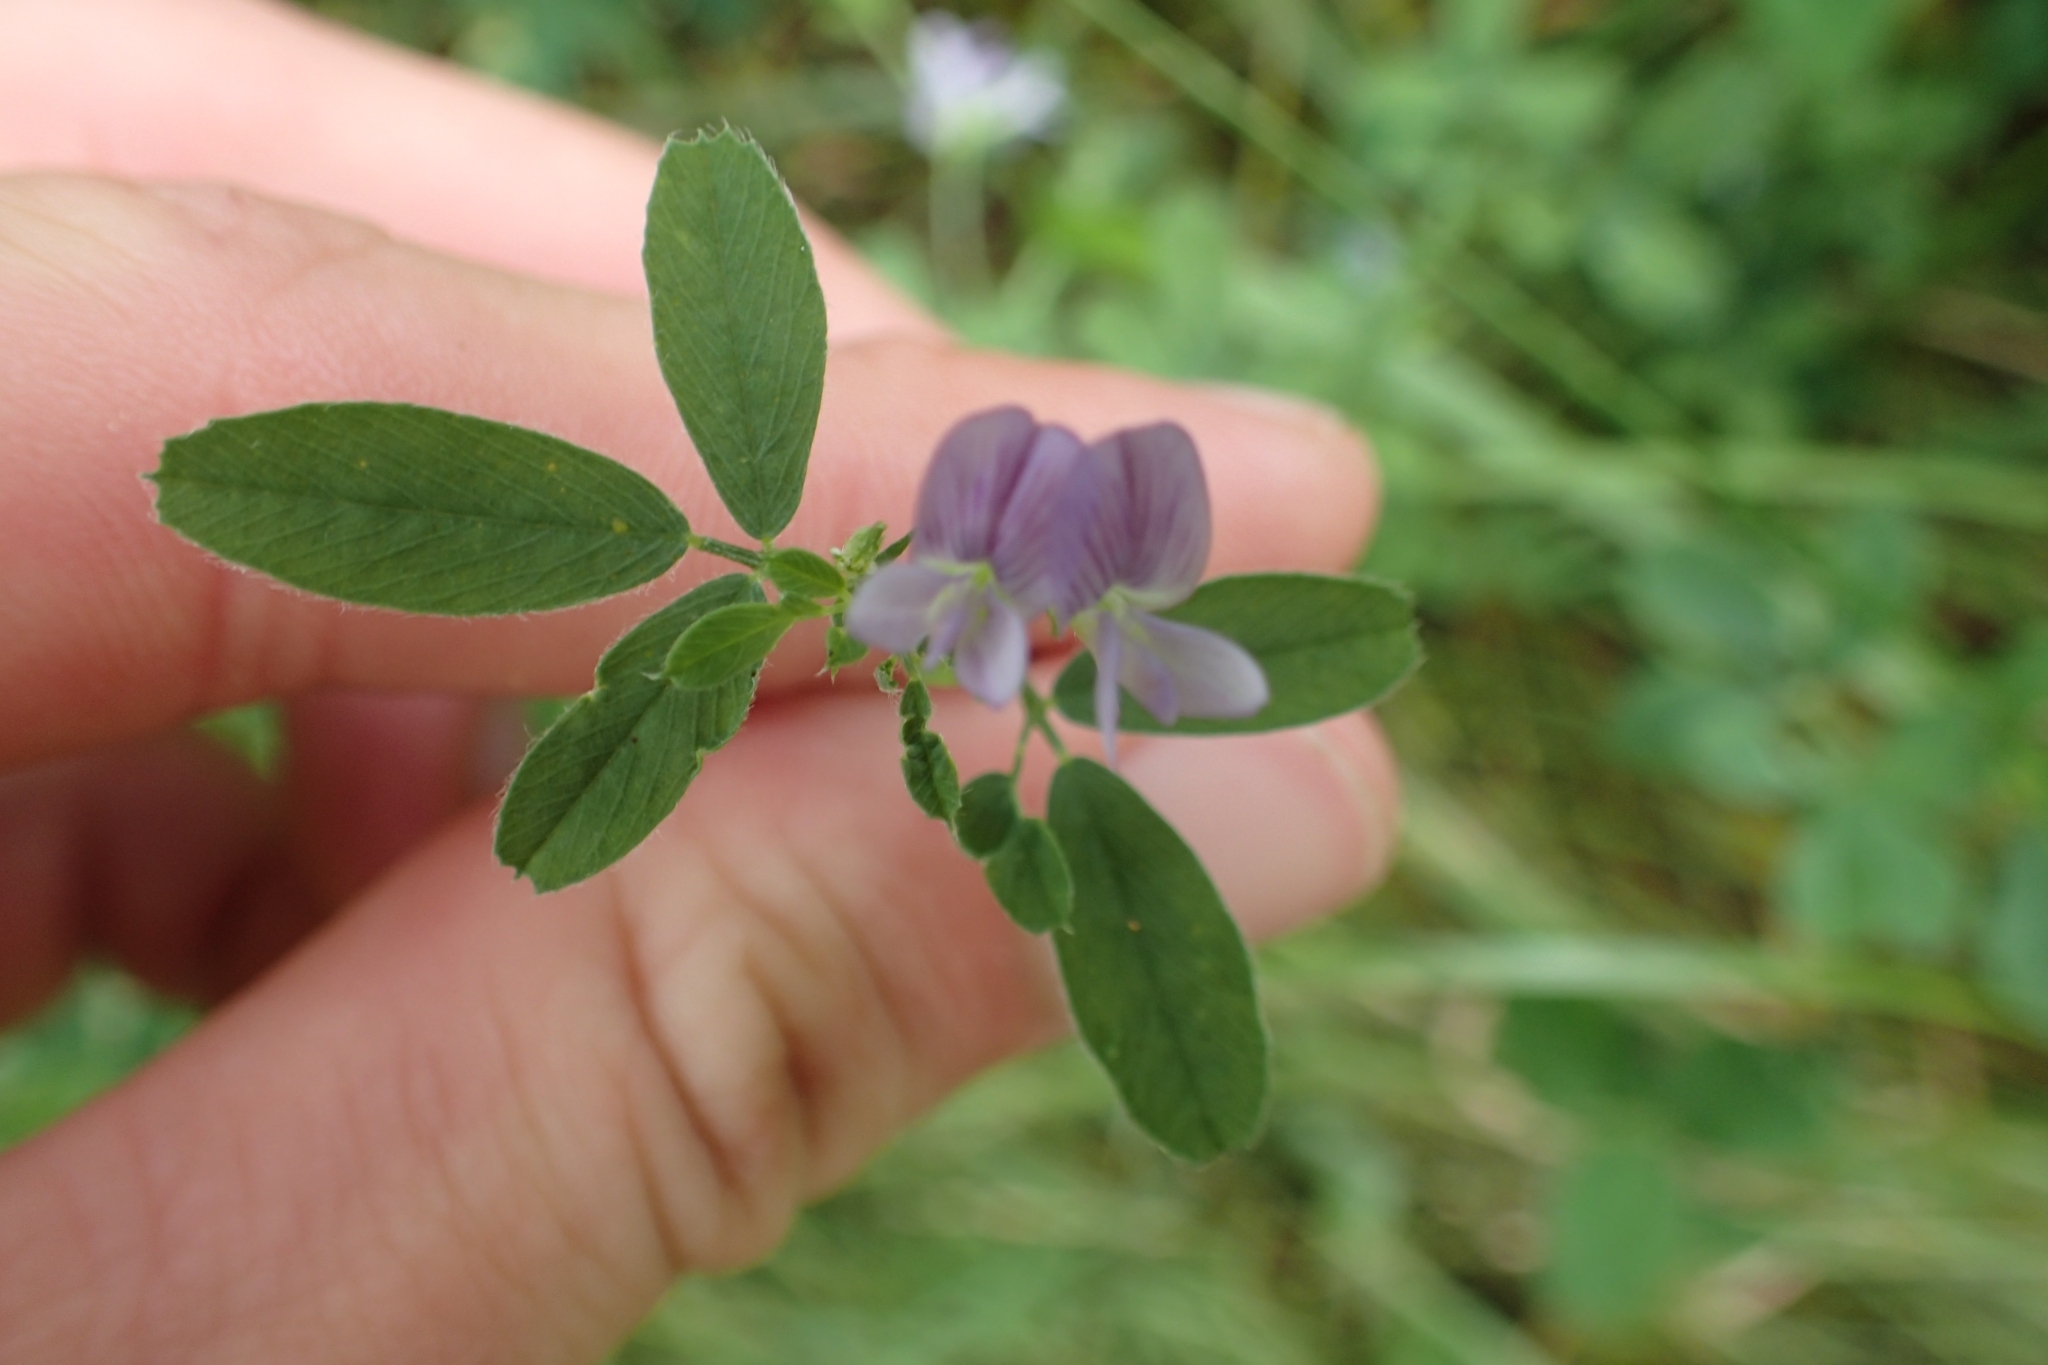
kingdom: Plantae
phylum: Tracheophyta
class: Magnoliopsida
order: Fabales
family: Fabaceae
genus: Medicago
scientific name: Medicago sativa
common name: Alfalfa
